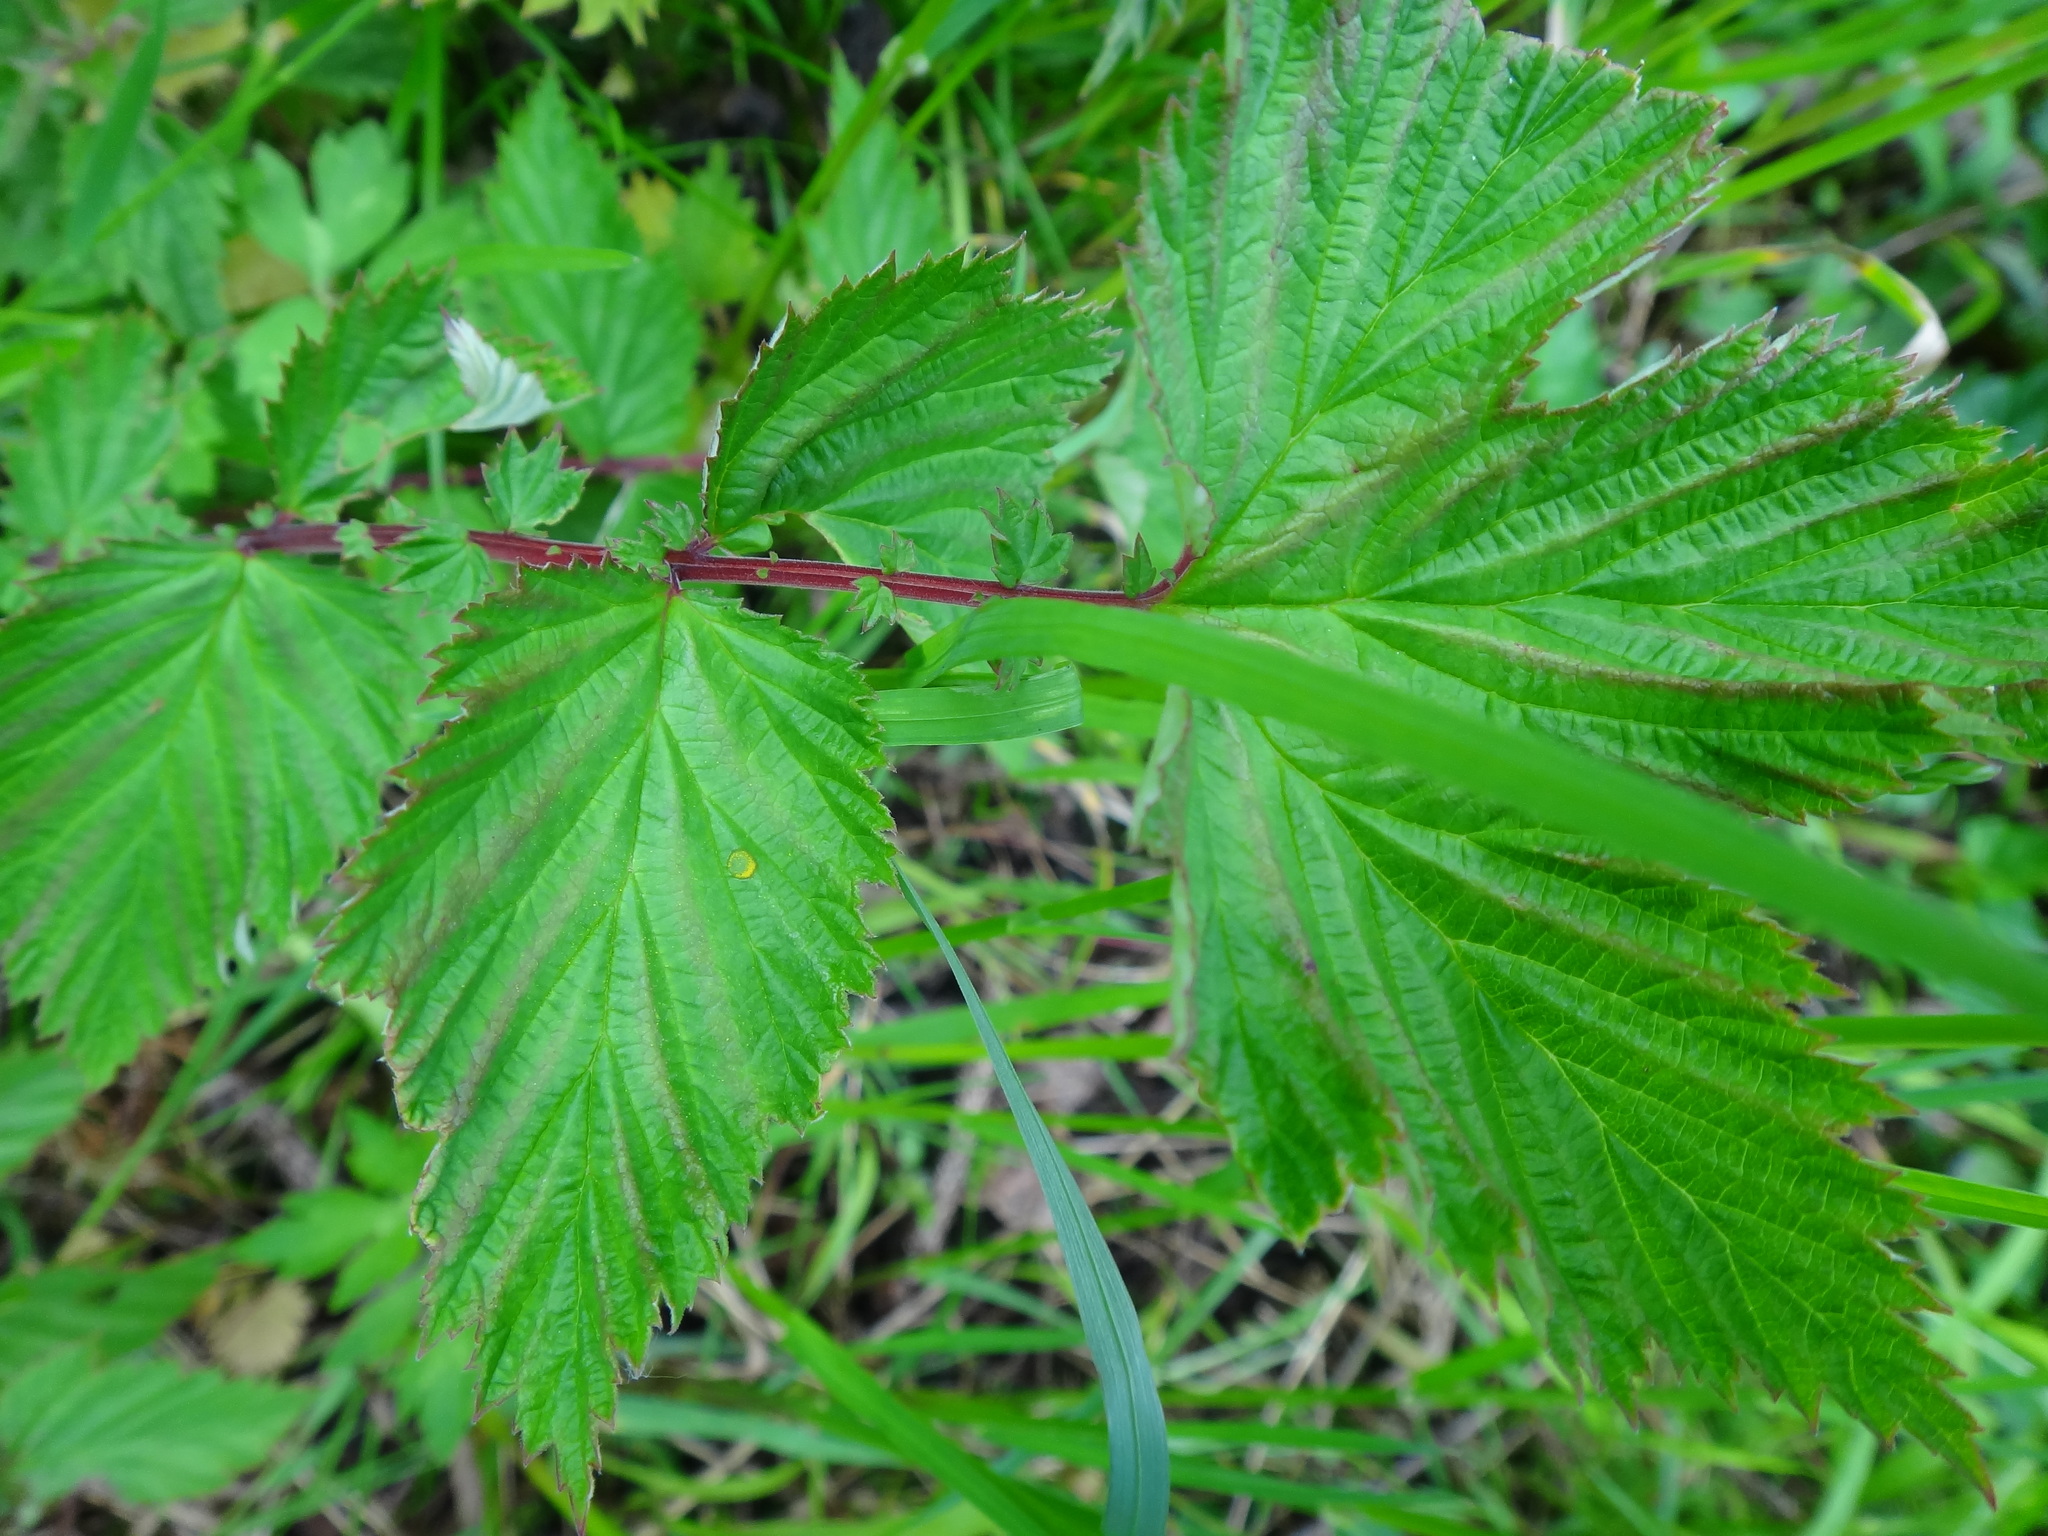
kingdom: Plantae
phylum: Tracheophyta
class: Magnoliopsida
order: Rosales
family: Rosaceae
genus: Filipendula
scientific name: Filipendula ulmaria
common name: Meadowsweet
